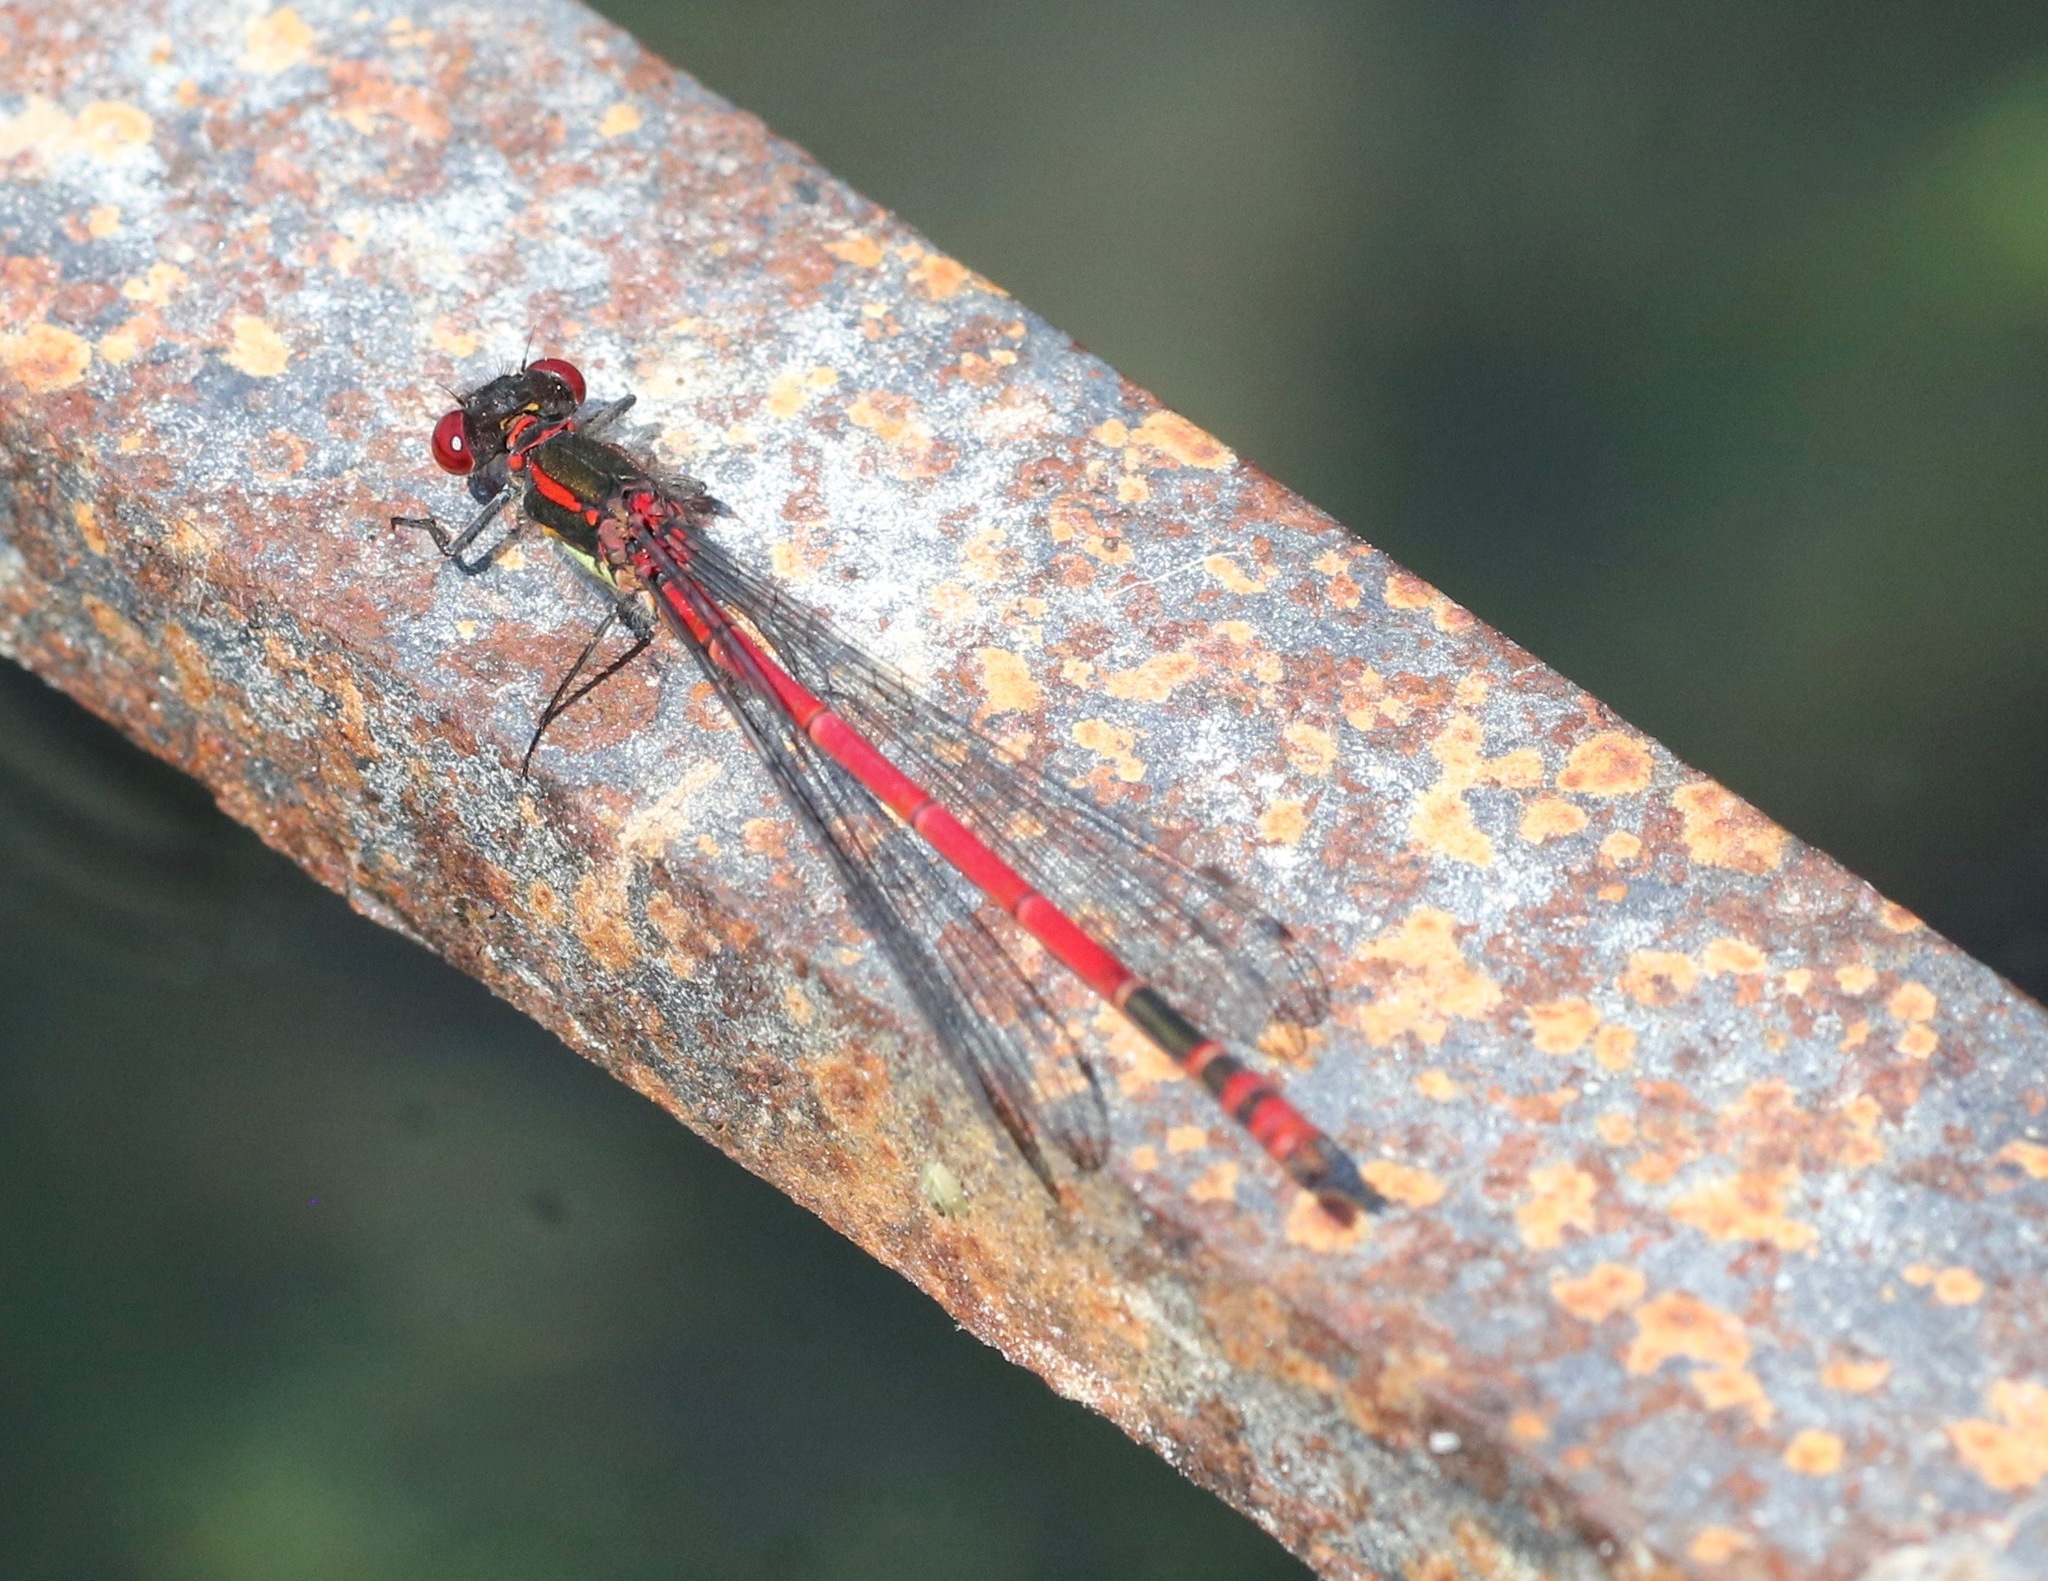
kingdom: Animalia
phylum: Arthropoda
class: Insecta
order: Odonata
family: Coenagrionidae
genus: Pyrrhosoma
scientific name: Pyrrhosoma nymphula
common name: Large red damsel
